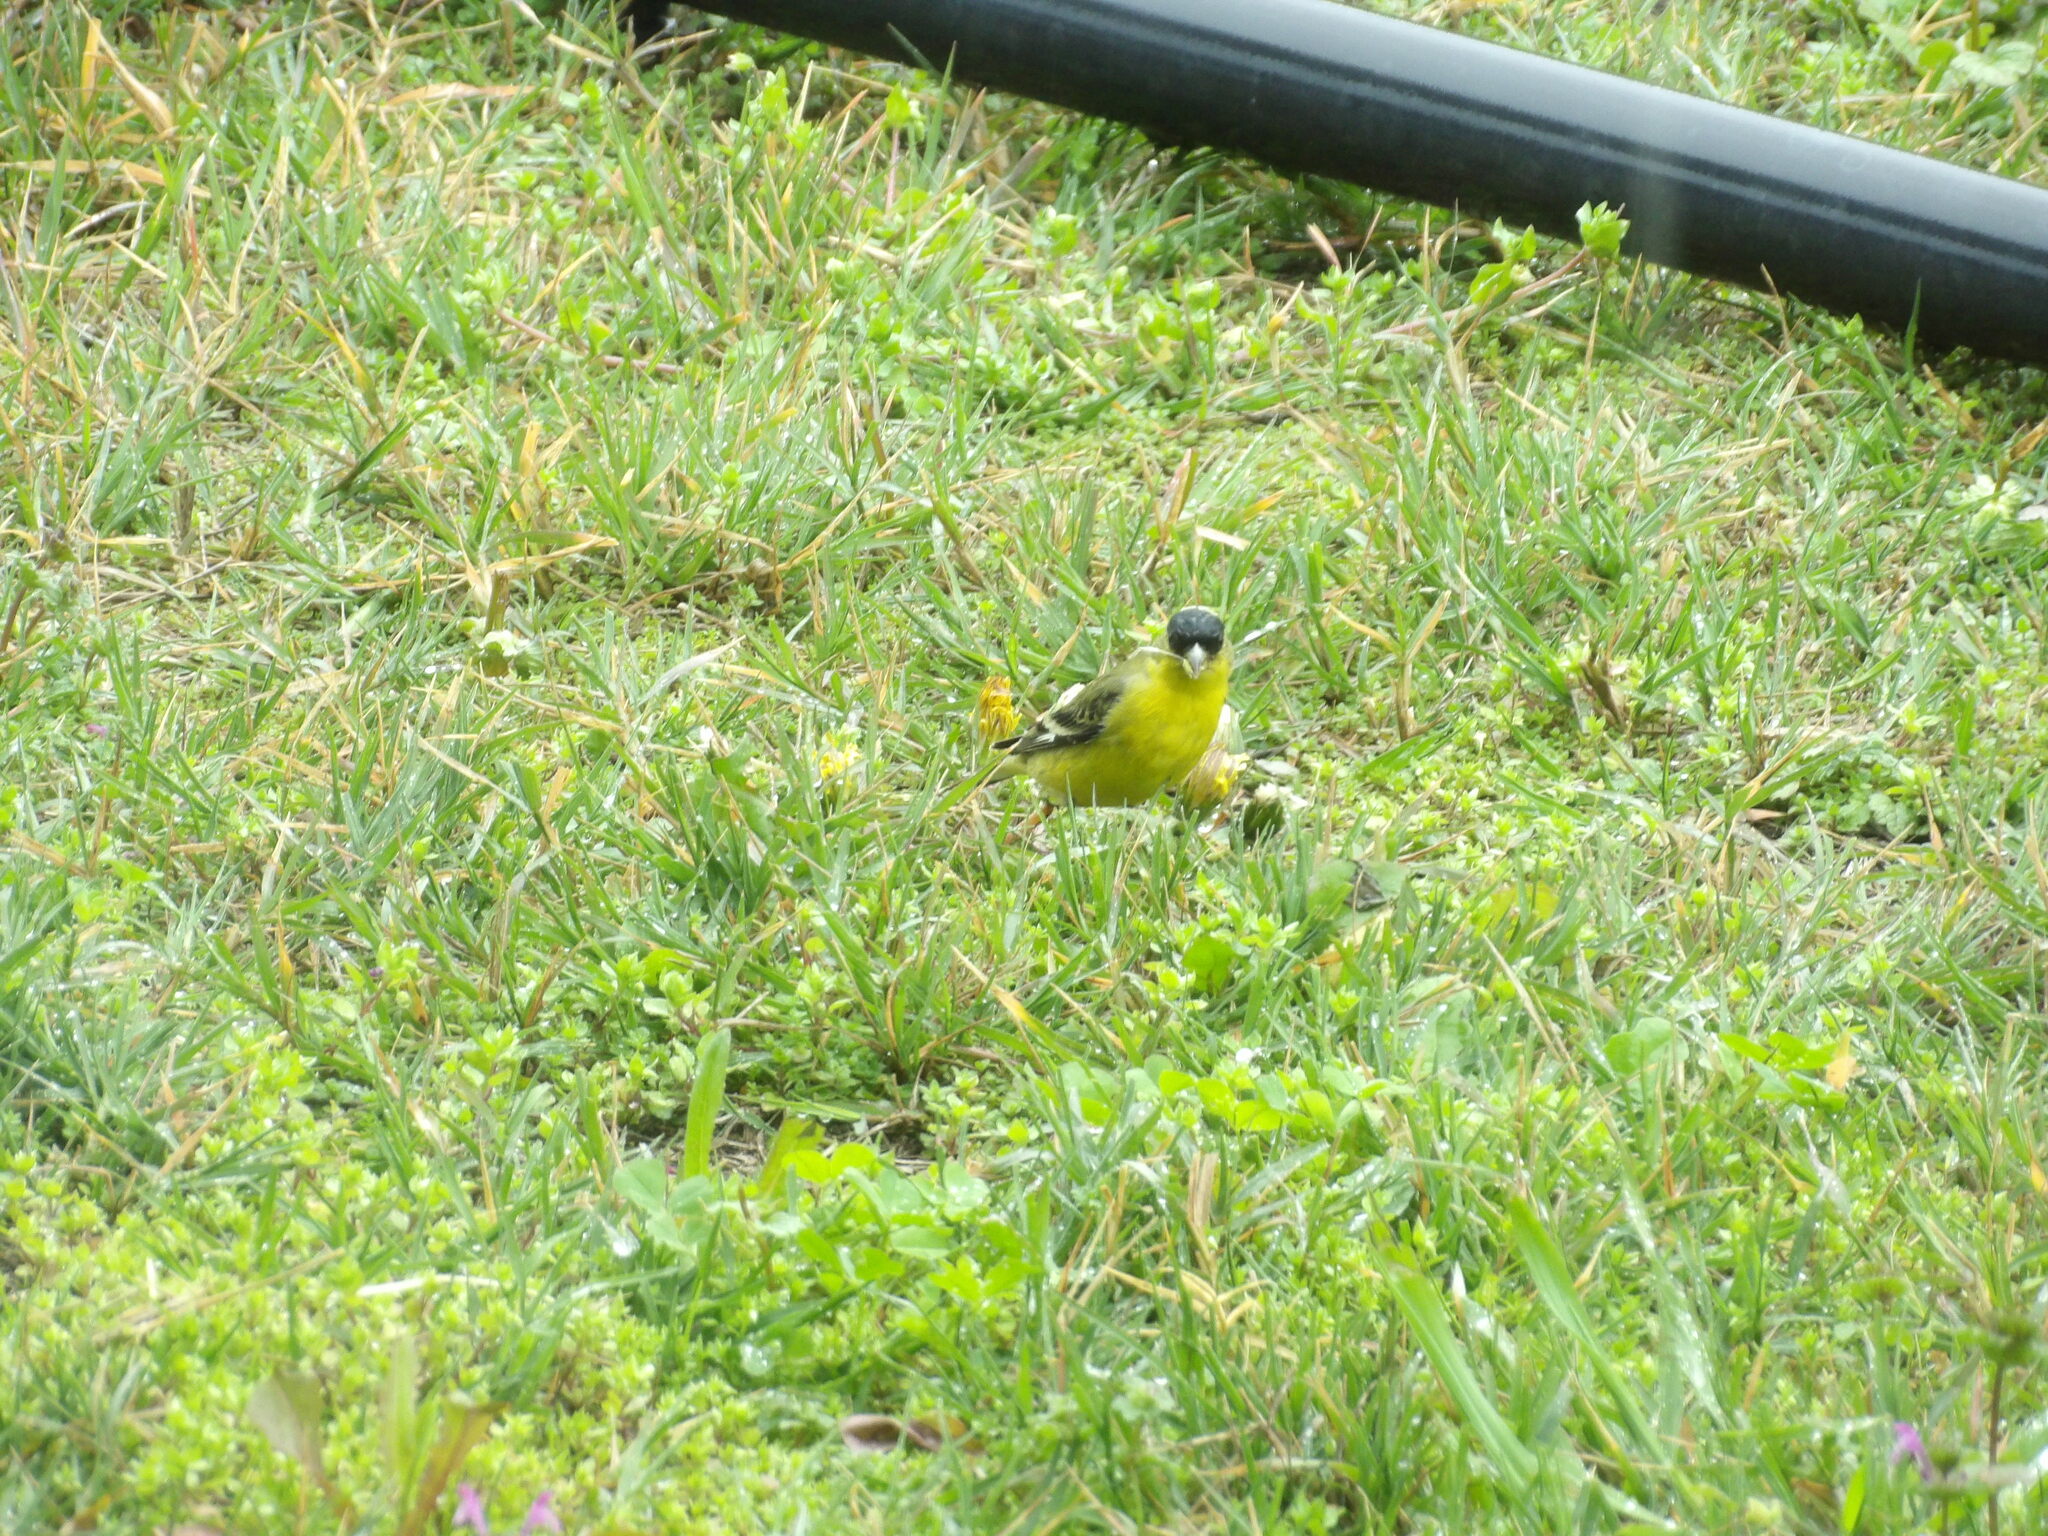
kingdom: Animalia
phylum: Chordata
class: Aves
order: Passeriformes
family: Fringillidae
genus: Spinus
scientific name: Spinus psaltria
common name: Lesser goldfinch
